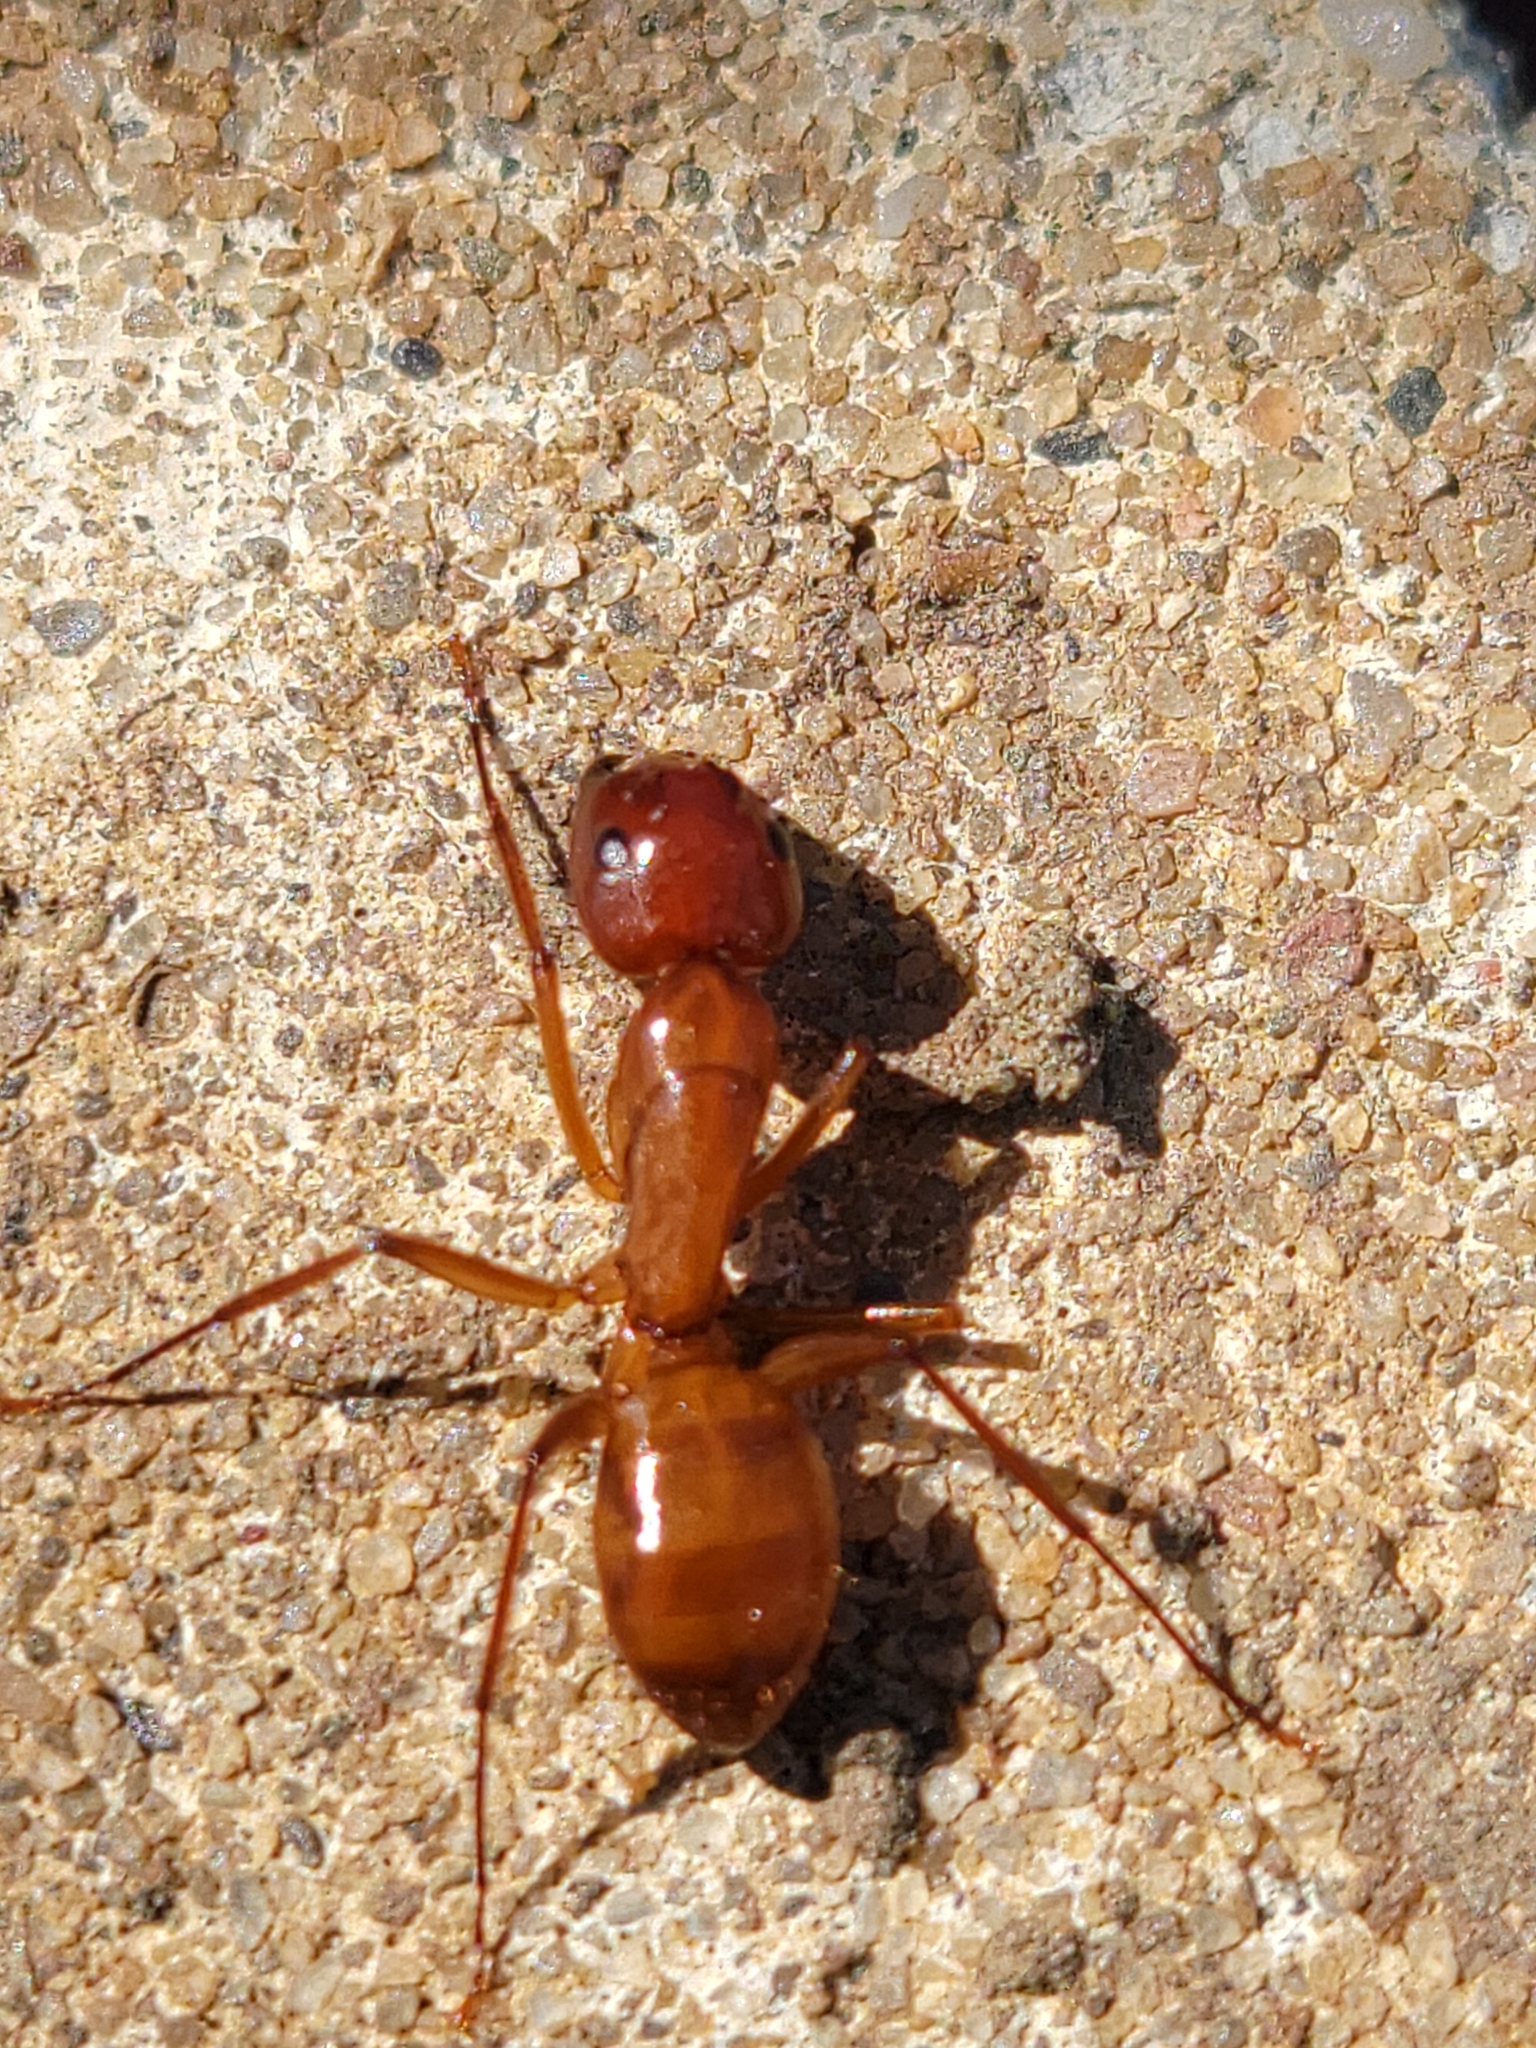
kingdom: Animalia
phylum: Arthropoda
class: Insecta
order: Hymenoptera
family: Formicidae
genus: Camponotus
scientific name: Camponotus castaneus
